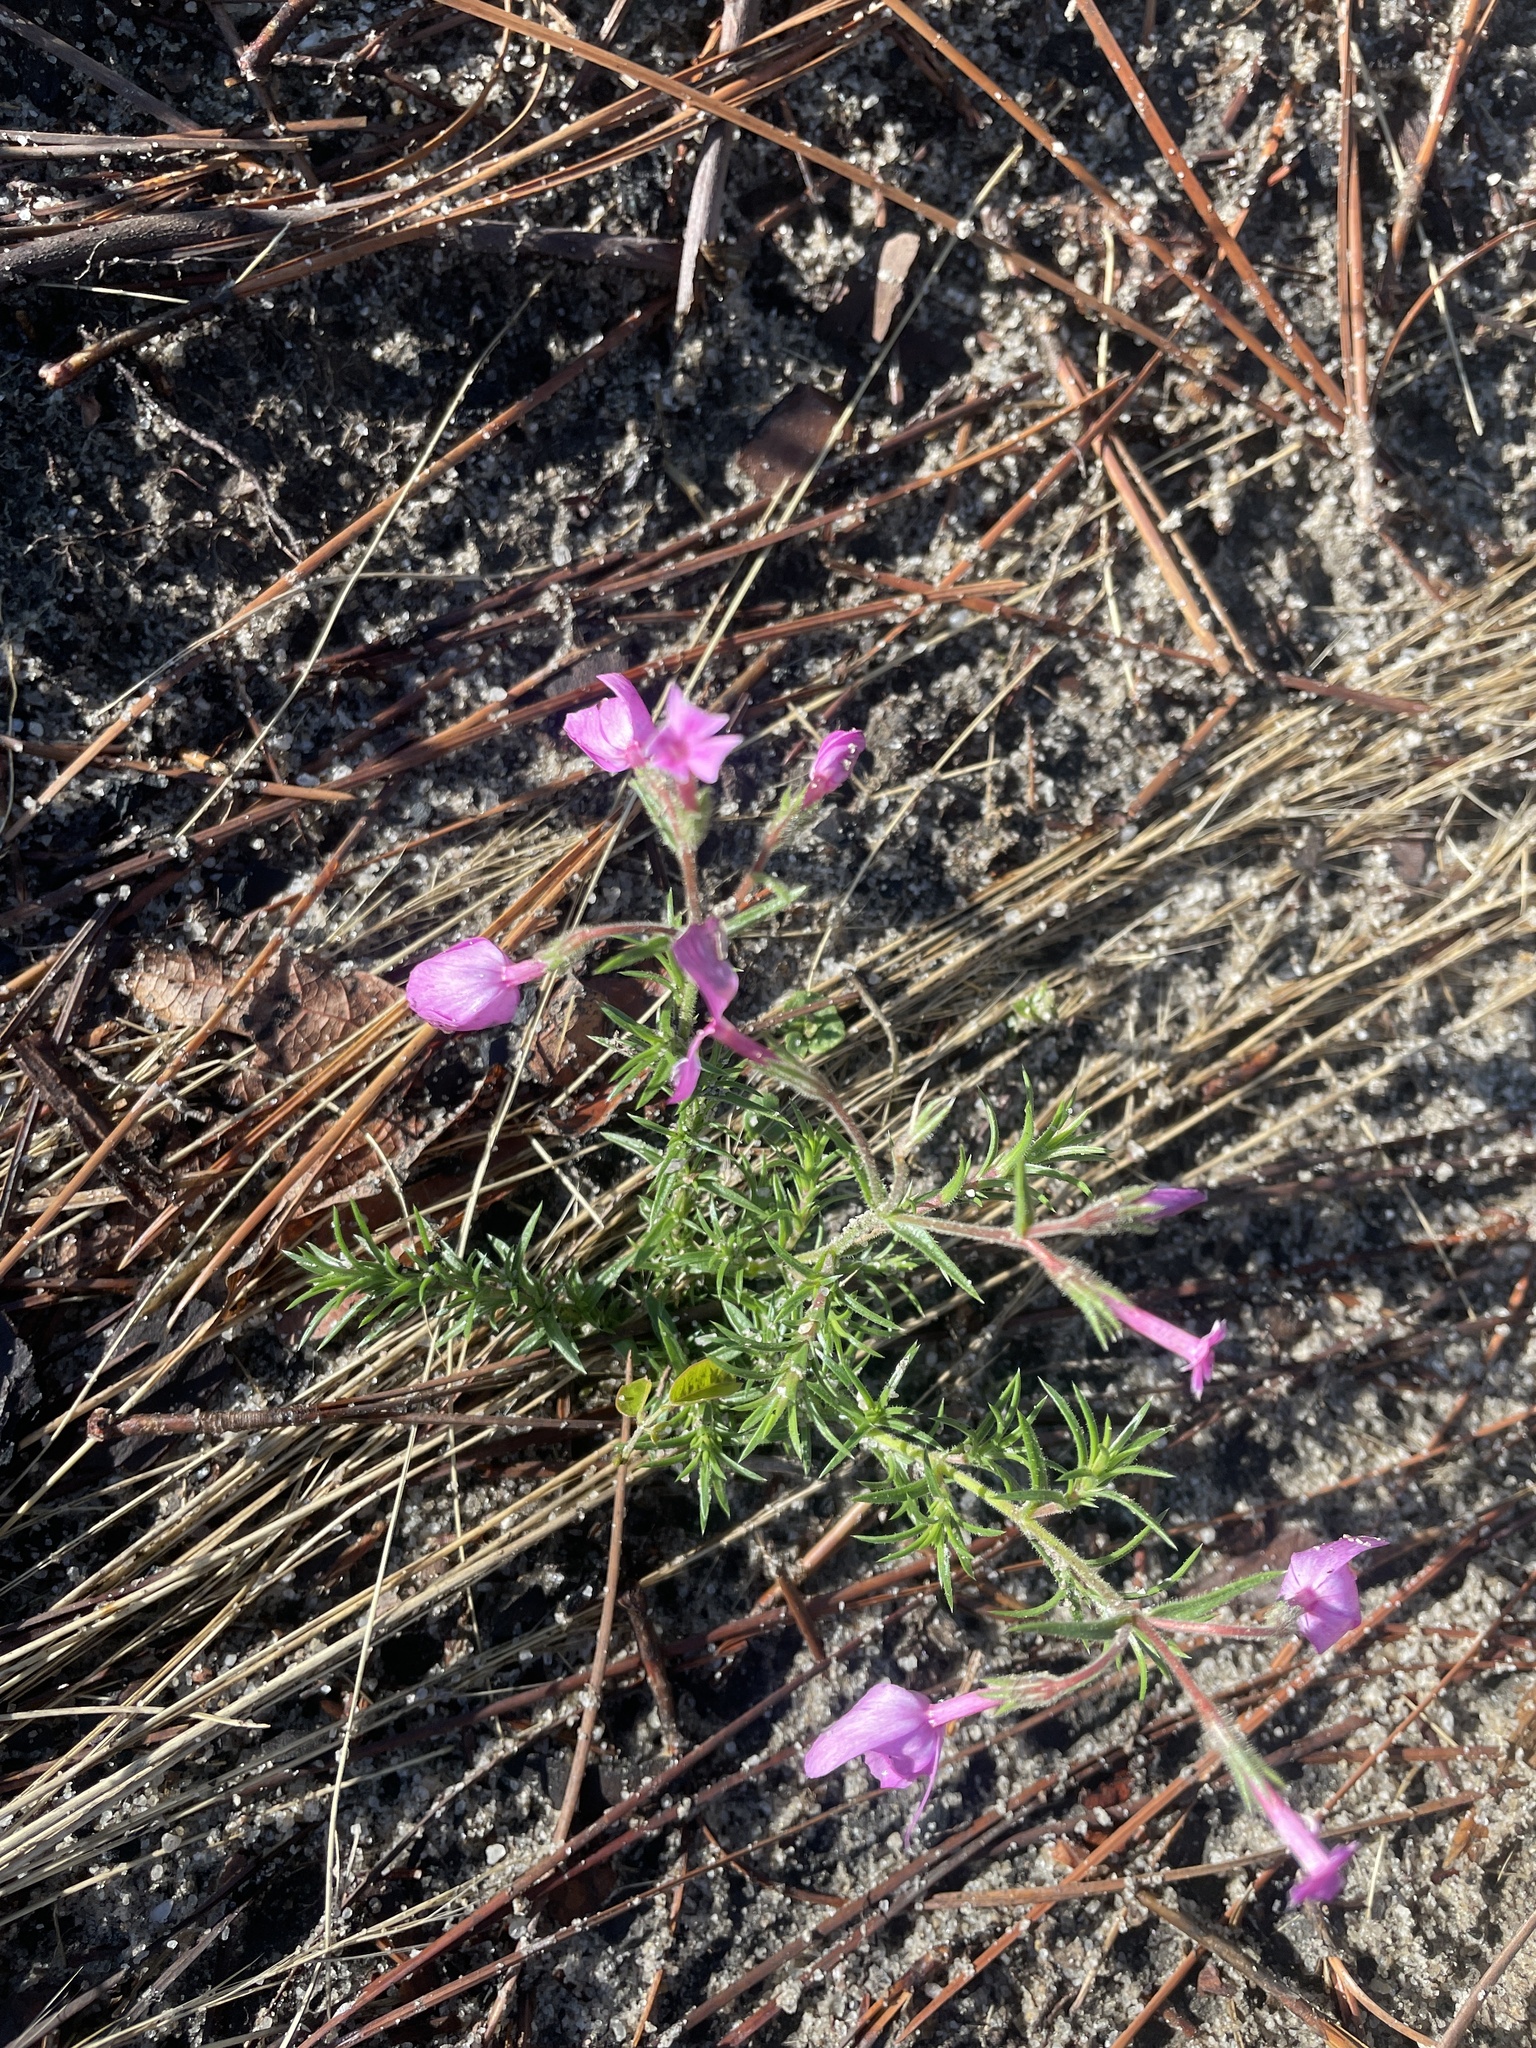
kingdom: Plantae
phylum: Tracheophyta
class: Magnoliopsida
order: Ericales
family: Polemoniaceae
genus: Phlox
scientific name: Phlox nivalis
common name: Trailing phlox
